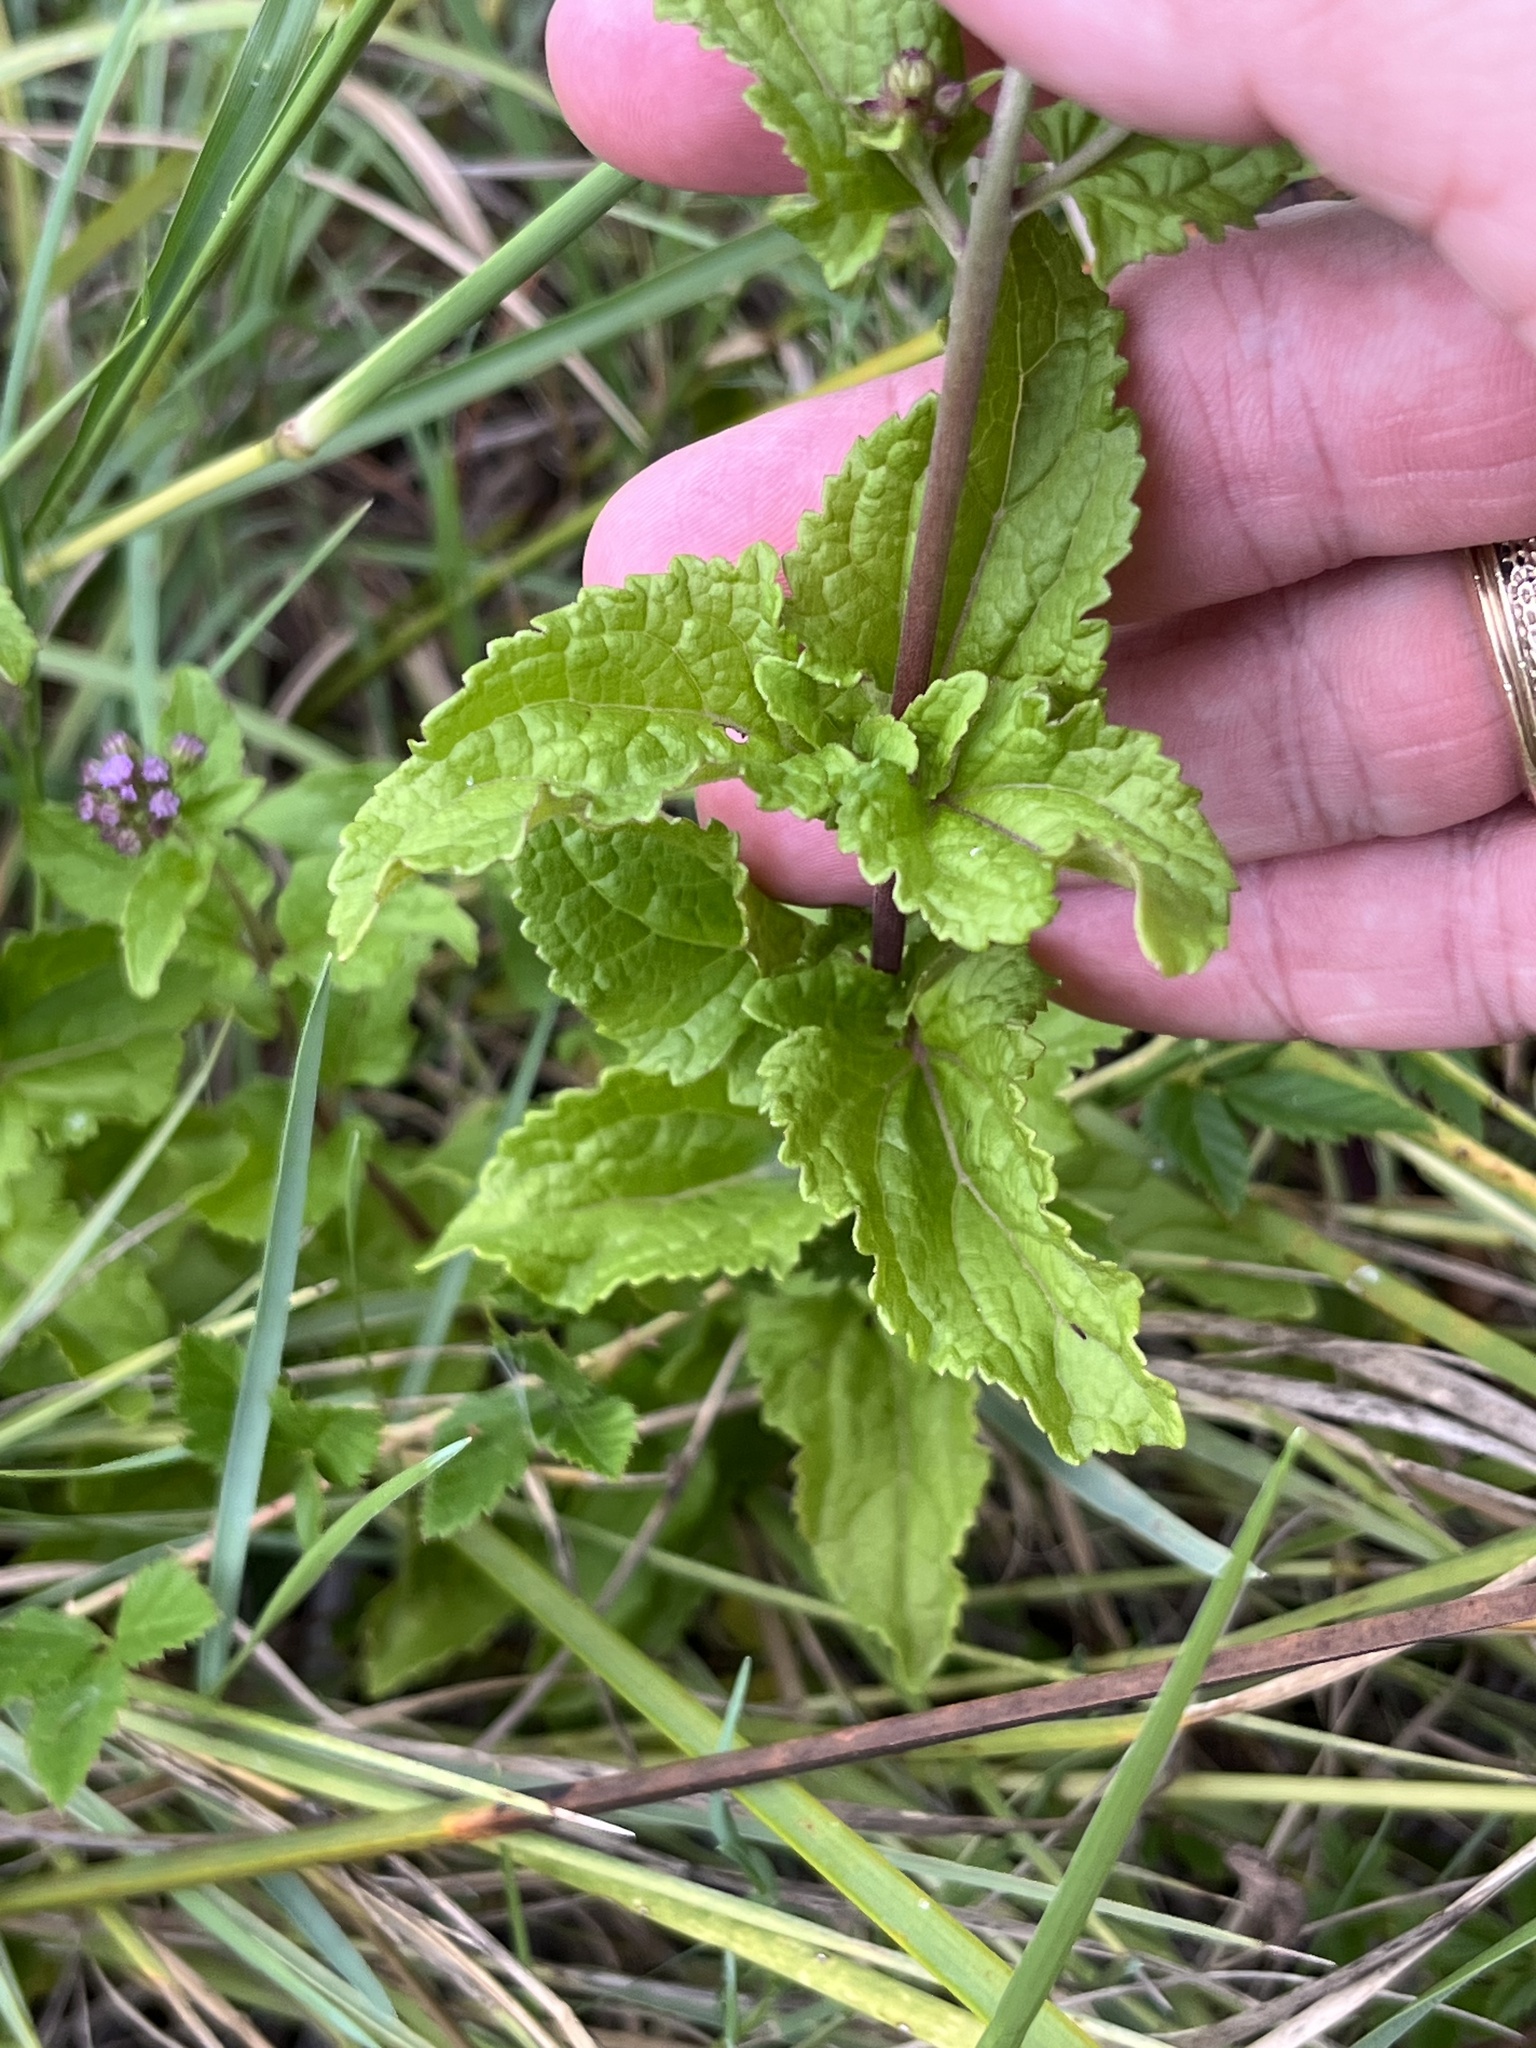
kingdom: Plantae
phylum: Tracheophyta
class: Magnoliopsida
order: Asterales
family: Asteraceae
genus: Conoclinium
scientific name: Conoclinium coelestinum
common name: Blue mistflower
